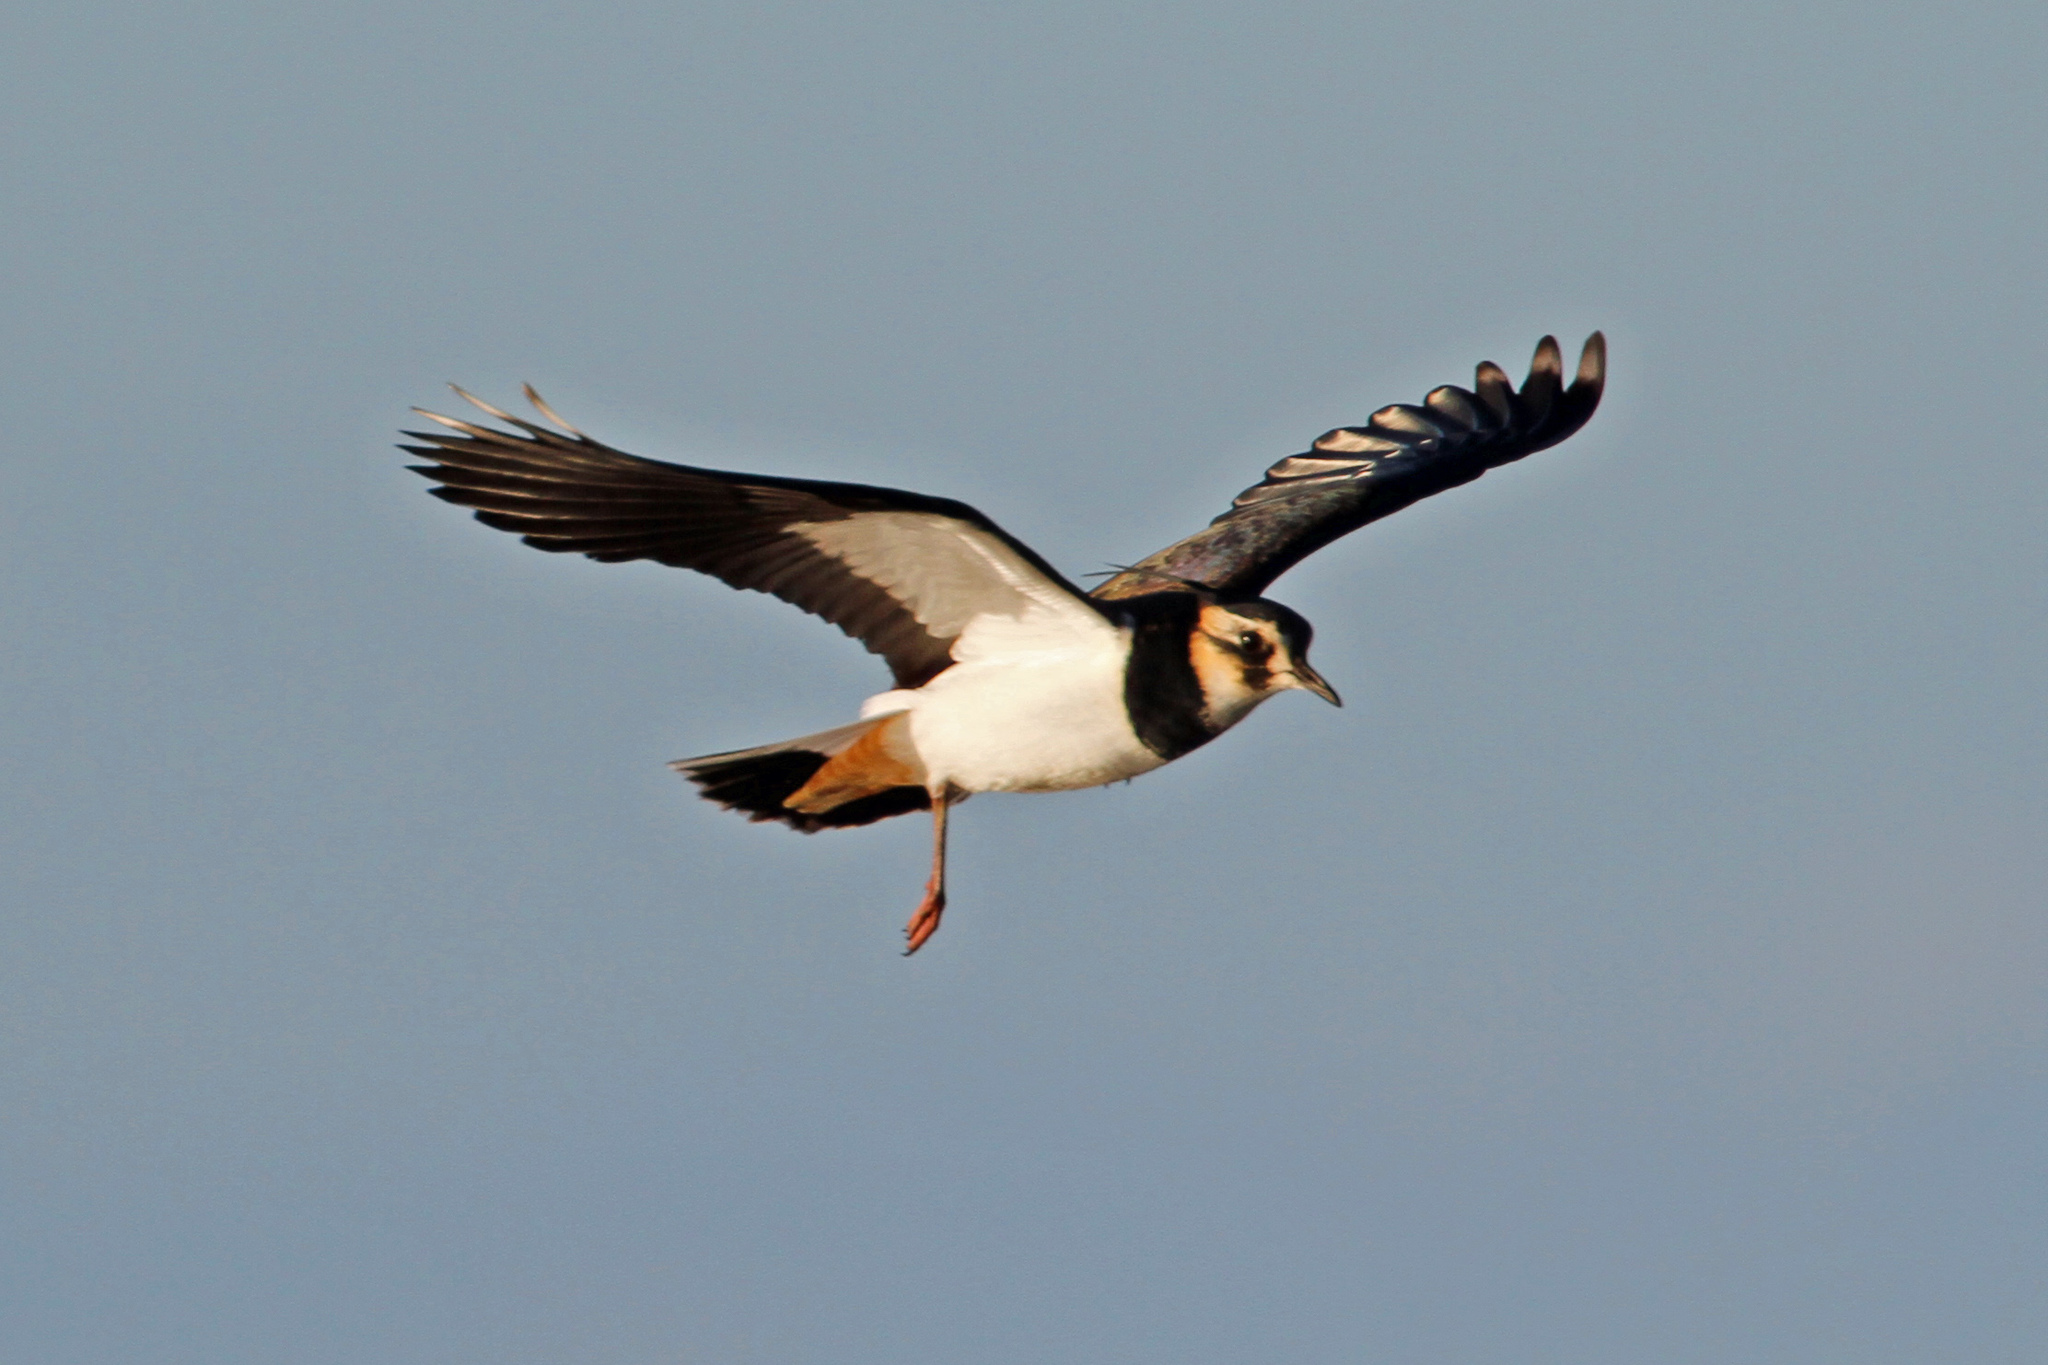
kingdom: Animalia
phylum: Chordata
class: Aves
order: Charadriiformes
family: Charadriidae
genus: Vanellus
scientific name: Vanellus vanellus
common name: Northern lapwing
